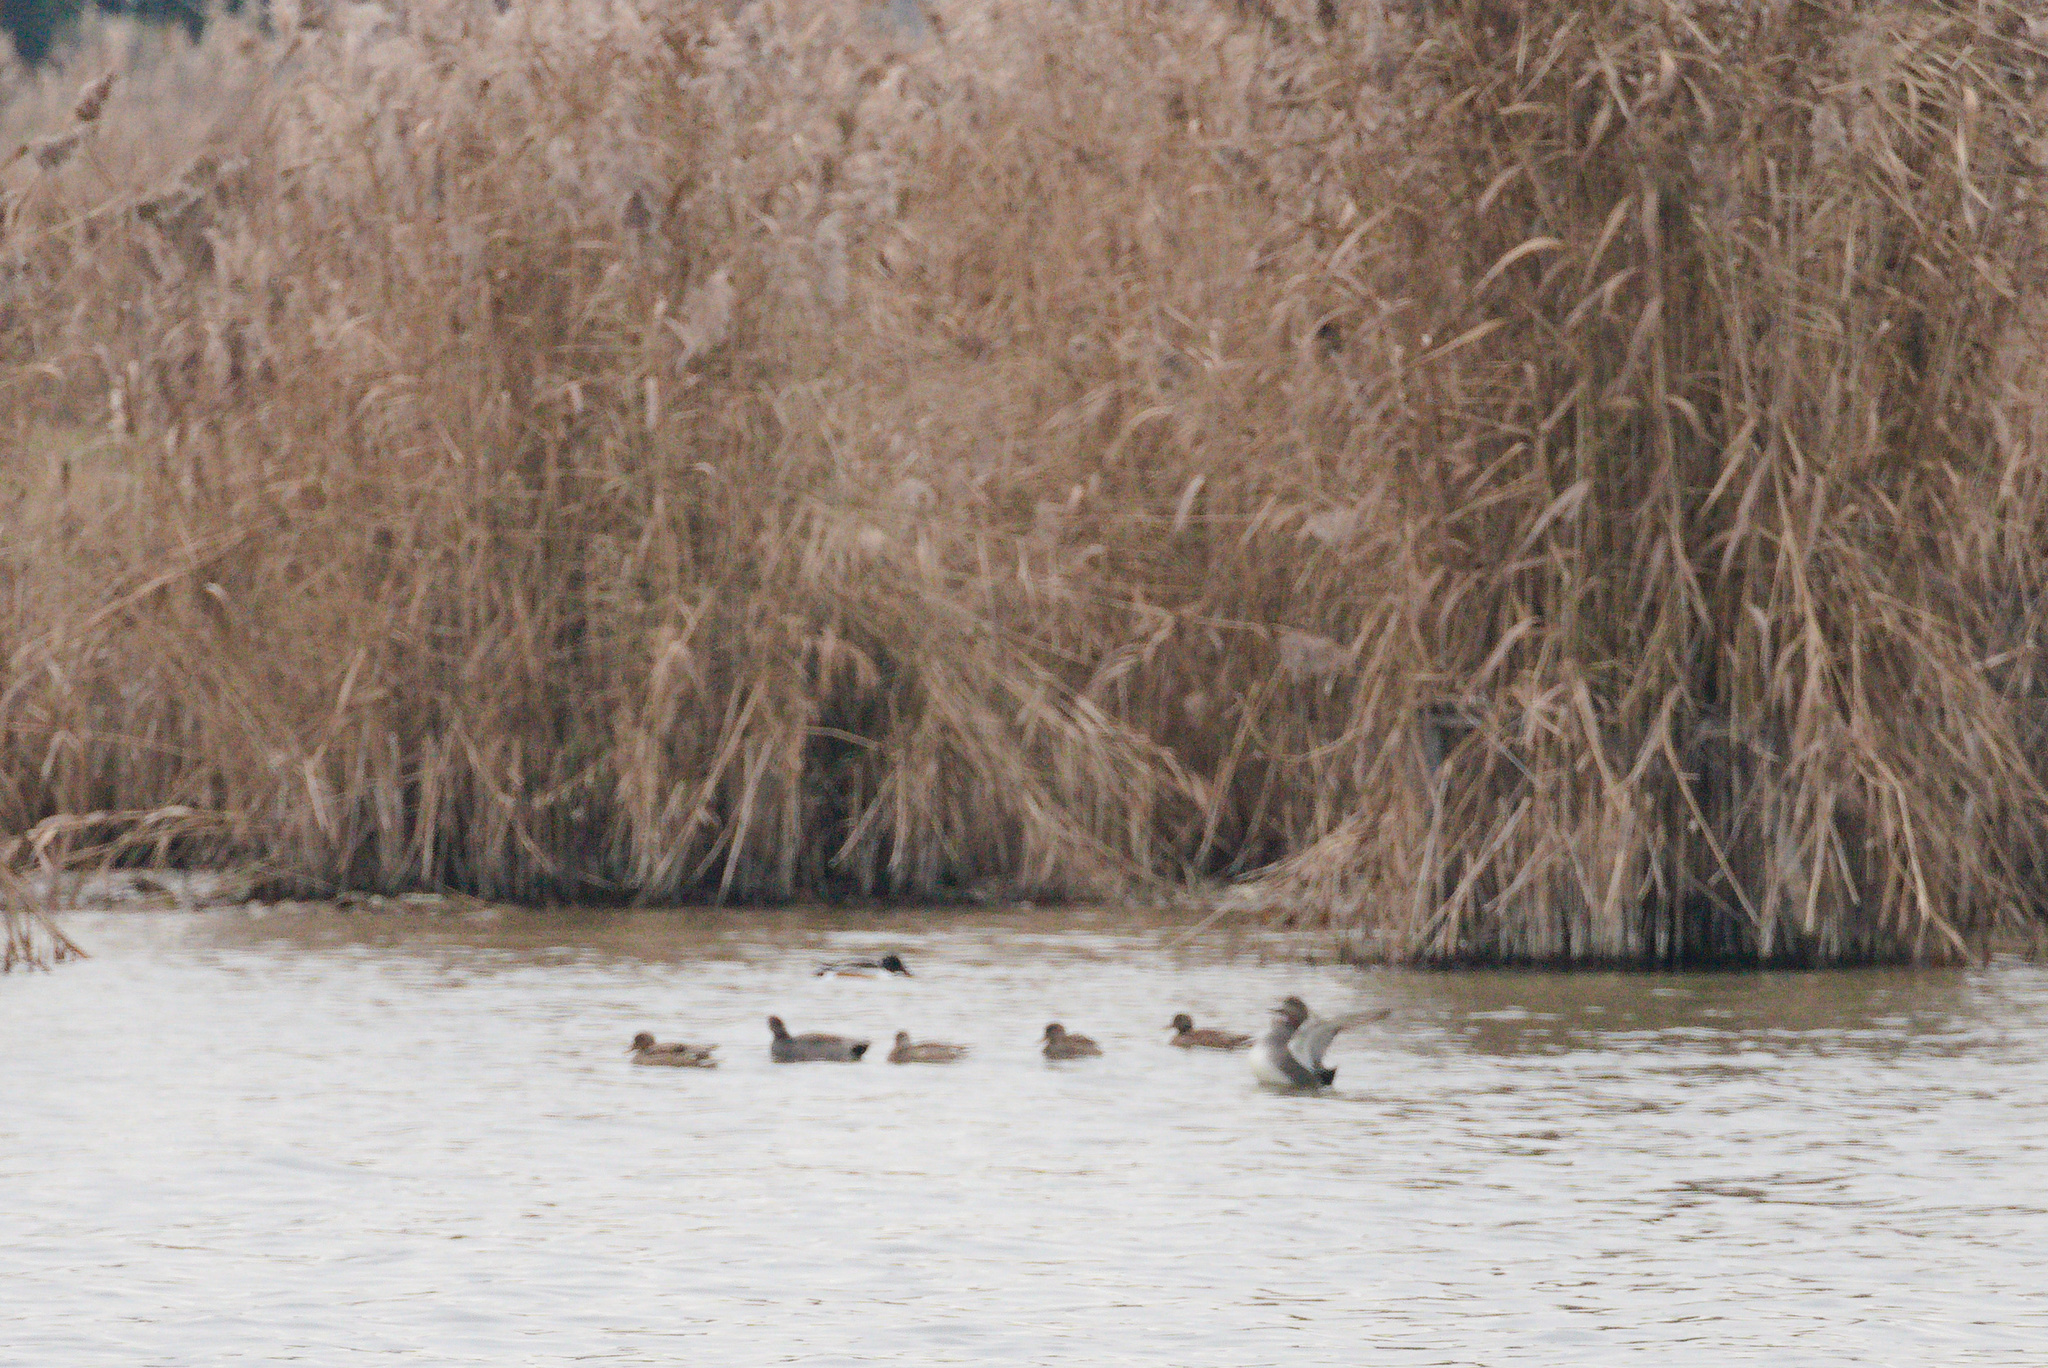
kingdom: Animalia
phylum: Chordata
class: Aves
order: Anseriformes
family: Anatidae
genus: Spatula
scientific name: Spatula clypeata
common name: Northern shoveler
